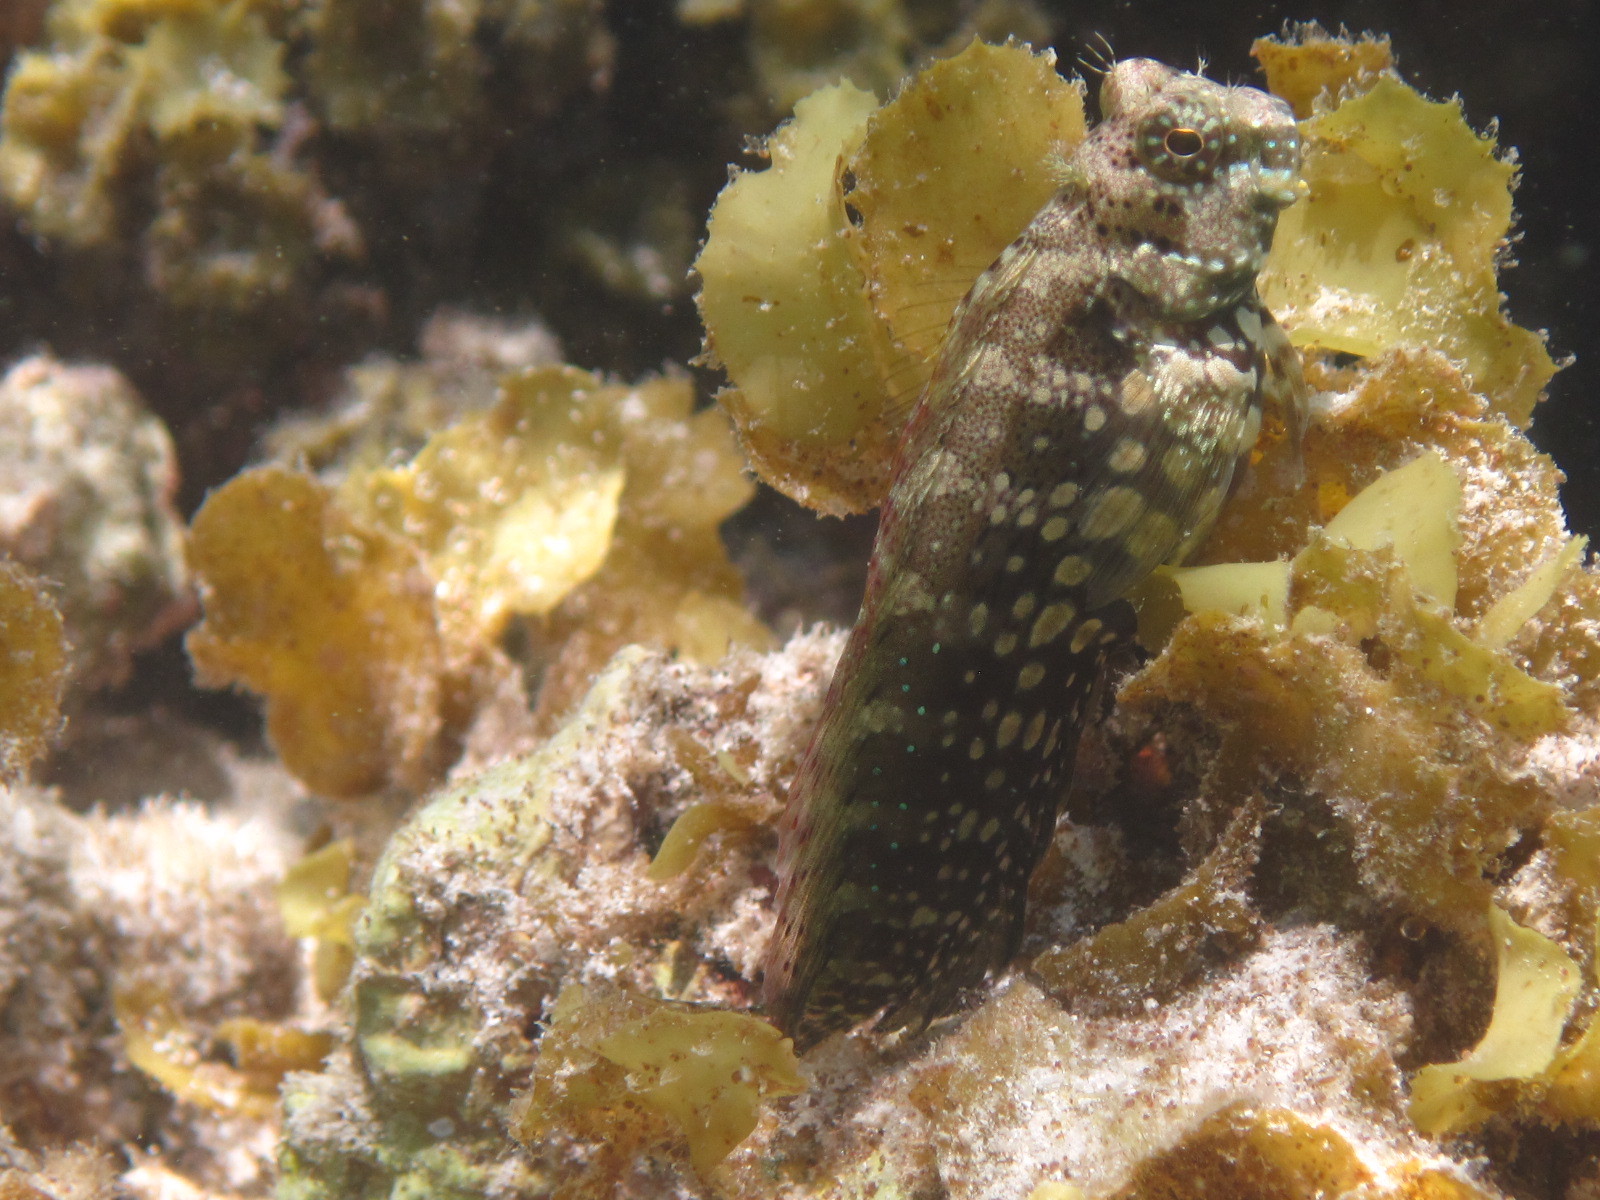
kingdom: Animalia
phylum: Chordata
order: Perciformes
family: Blenniidae
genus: Salarias
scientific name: Salarias fasciatus
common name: Jewelled blenny
